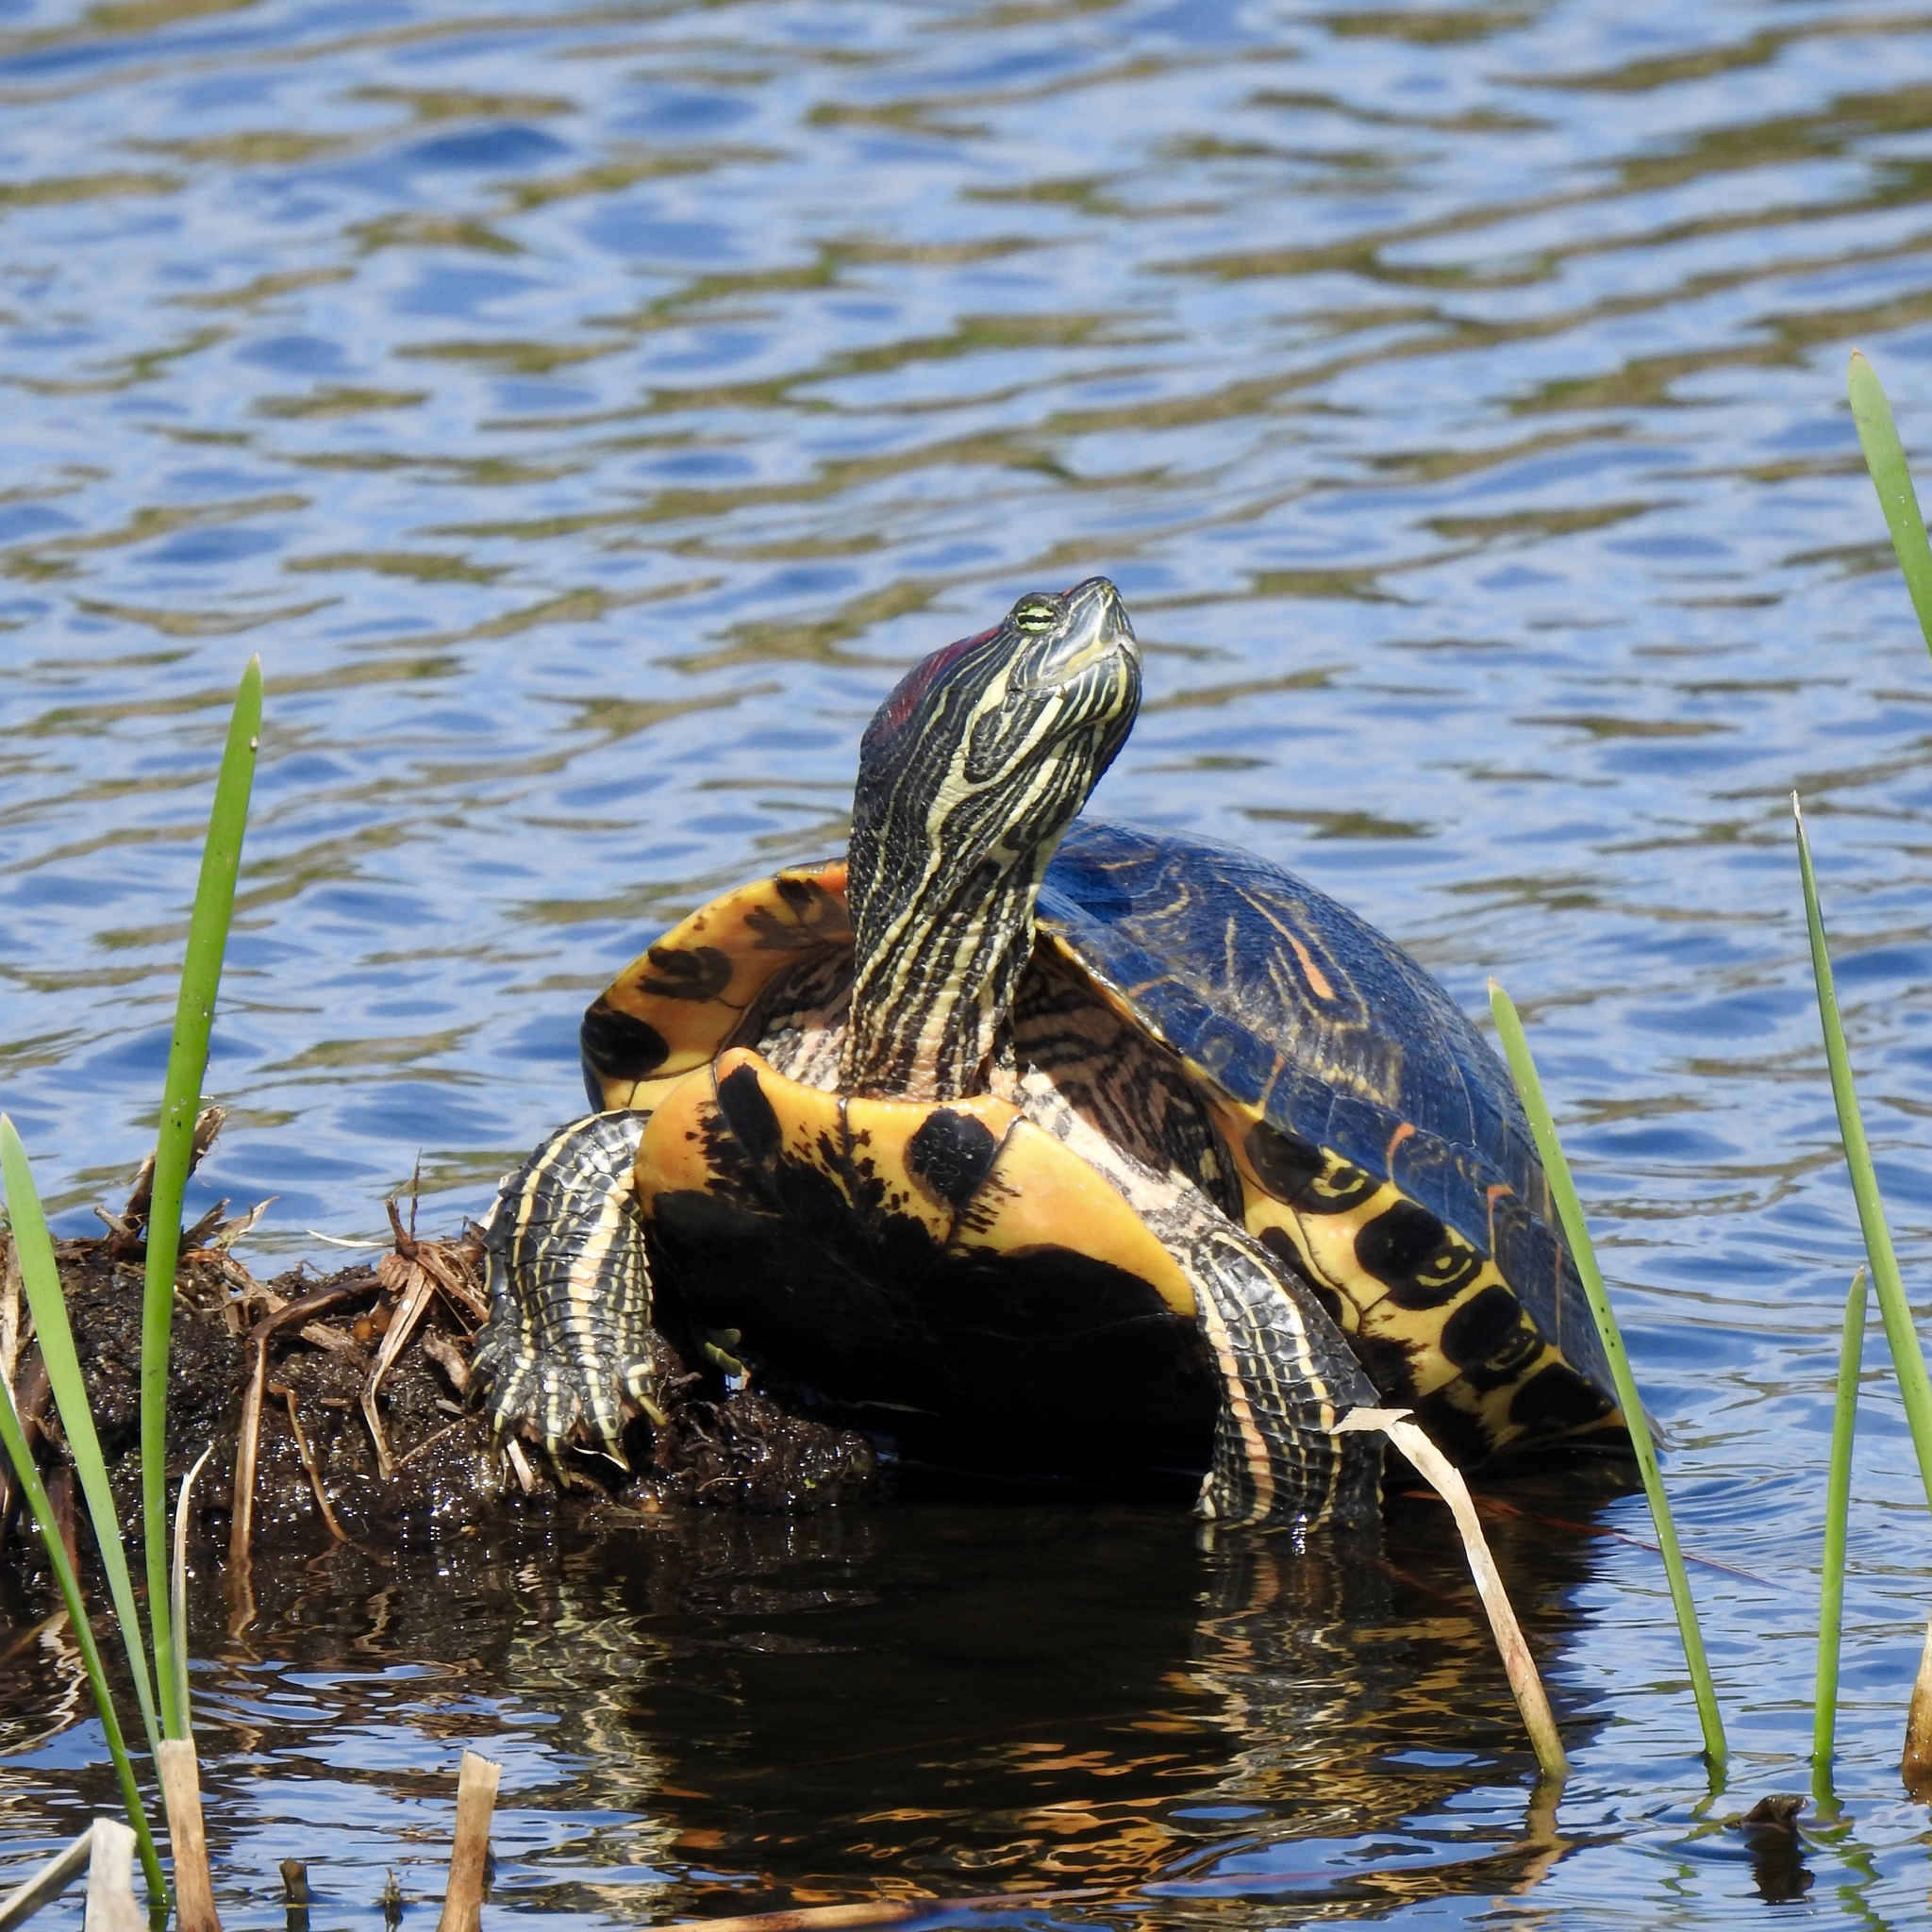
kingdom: Animalia
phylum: Chordata
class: Testudines
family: Emydidae
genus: Trachemys
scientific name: Trachemys scripta
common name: Slider
